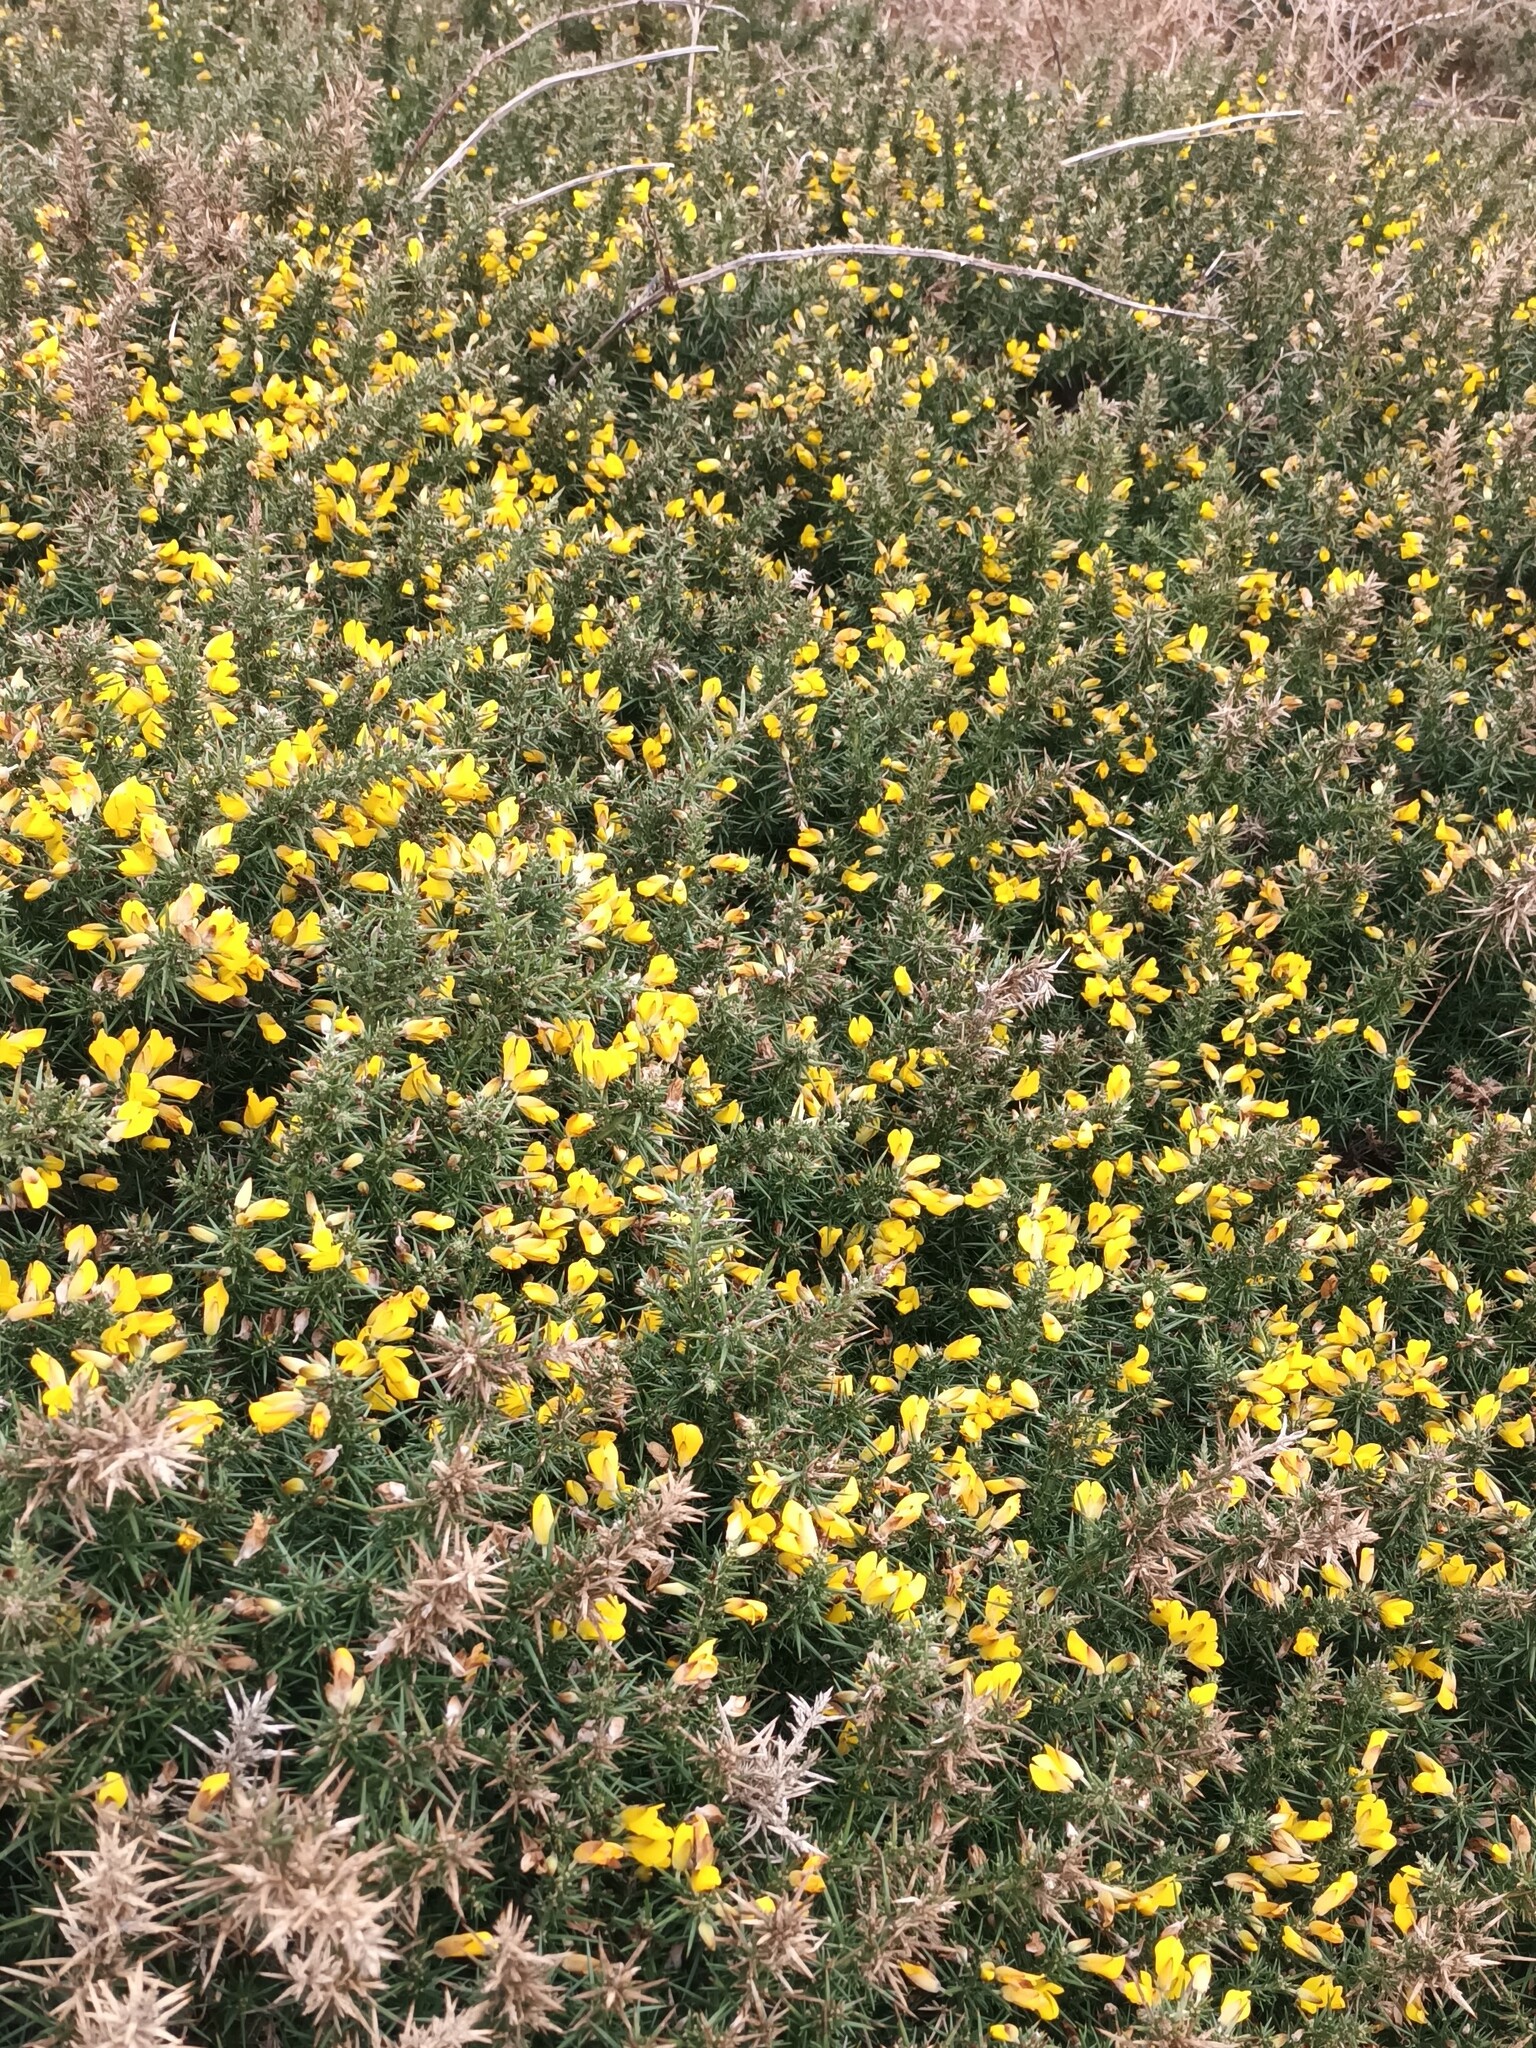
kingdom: Plantae
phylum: Tracheophyta
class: Magnoliopsida
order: Fabales
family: Fabaceae
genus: Ulex
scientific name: Ulex europaeus
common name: Common gorse
